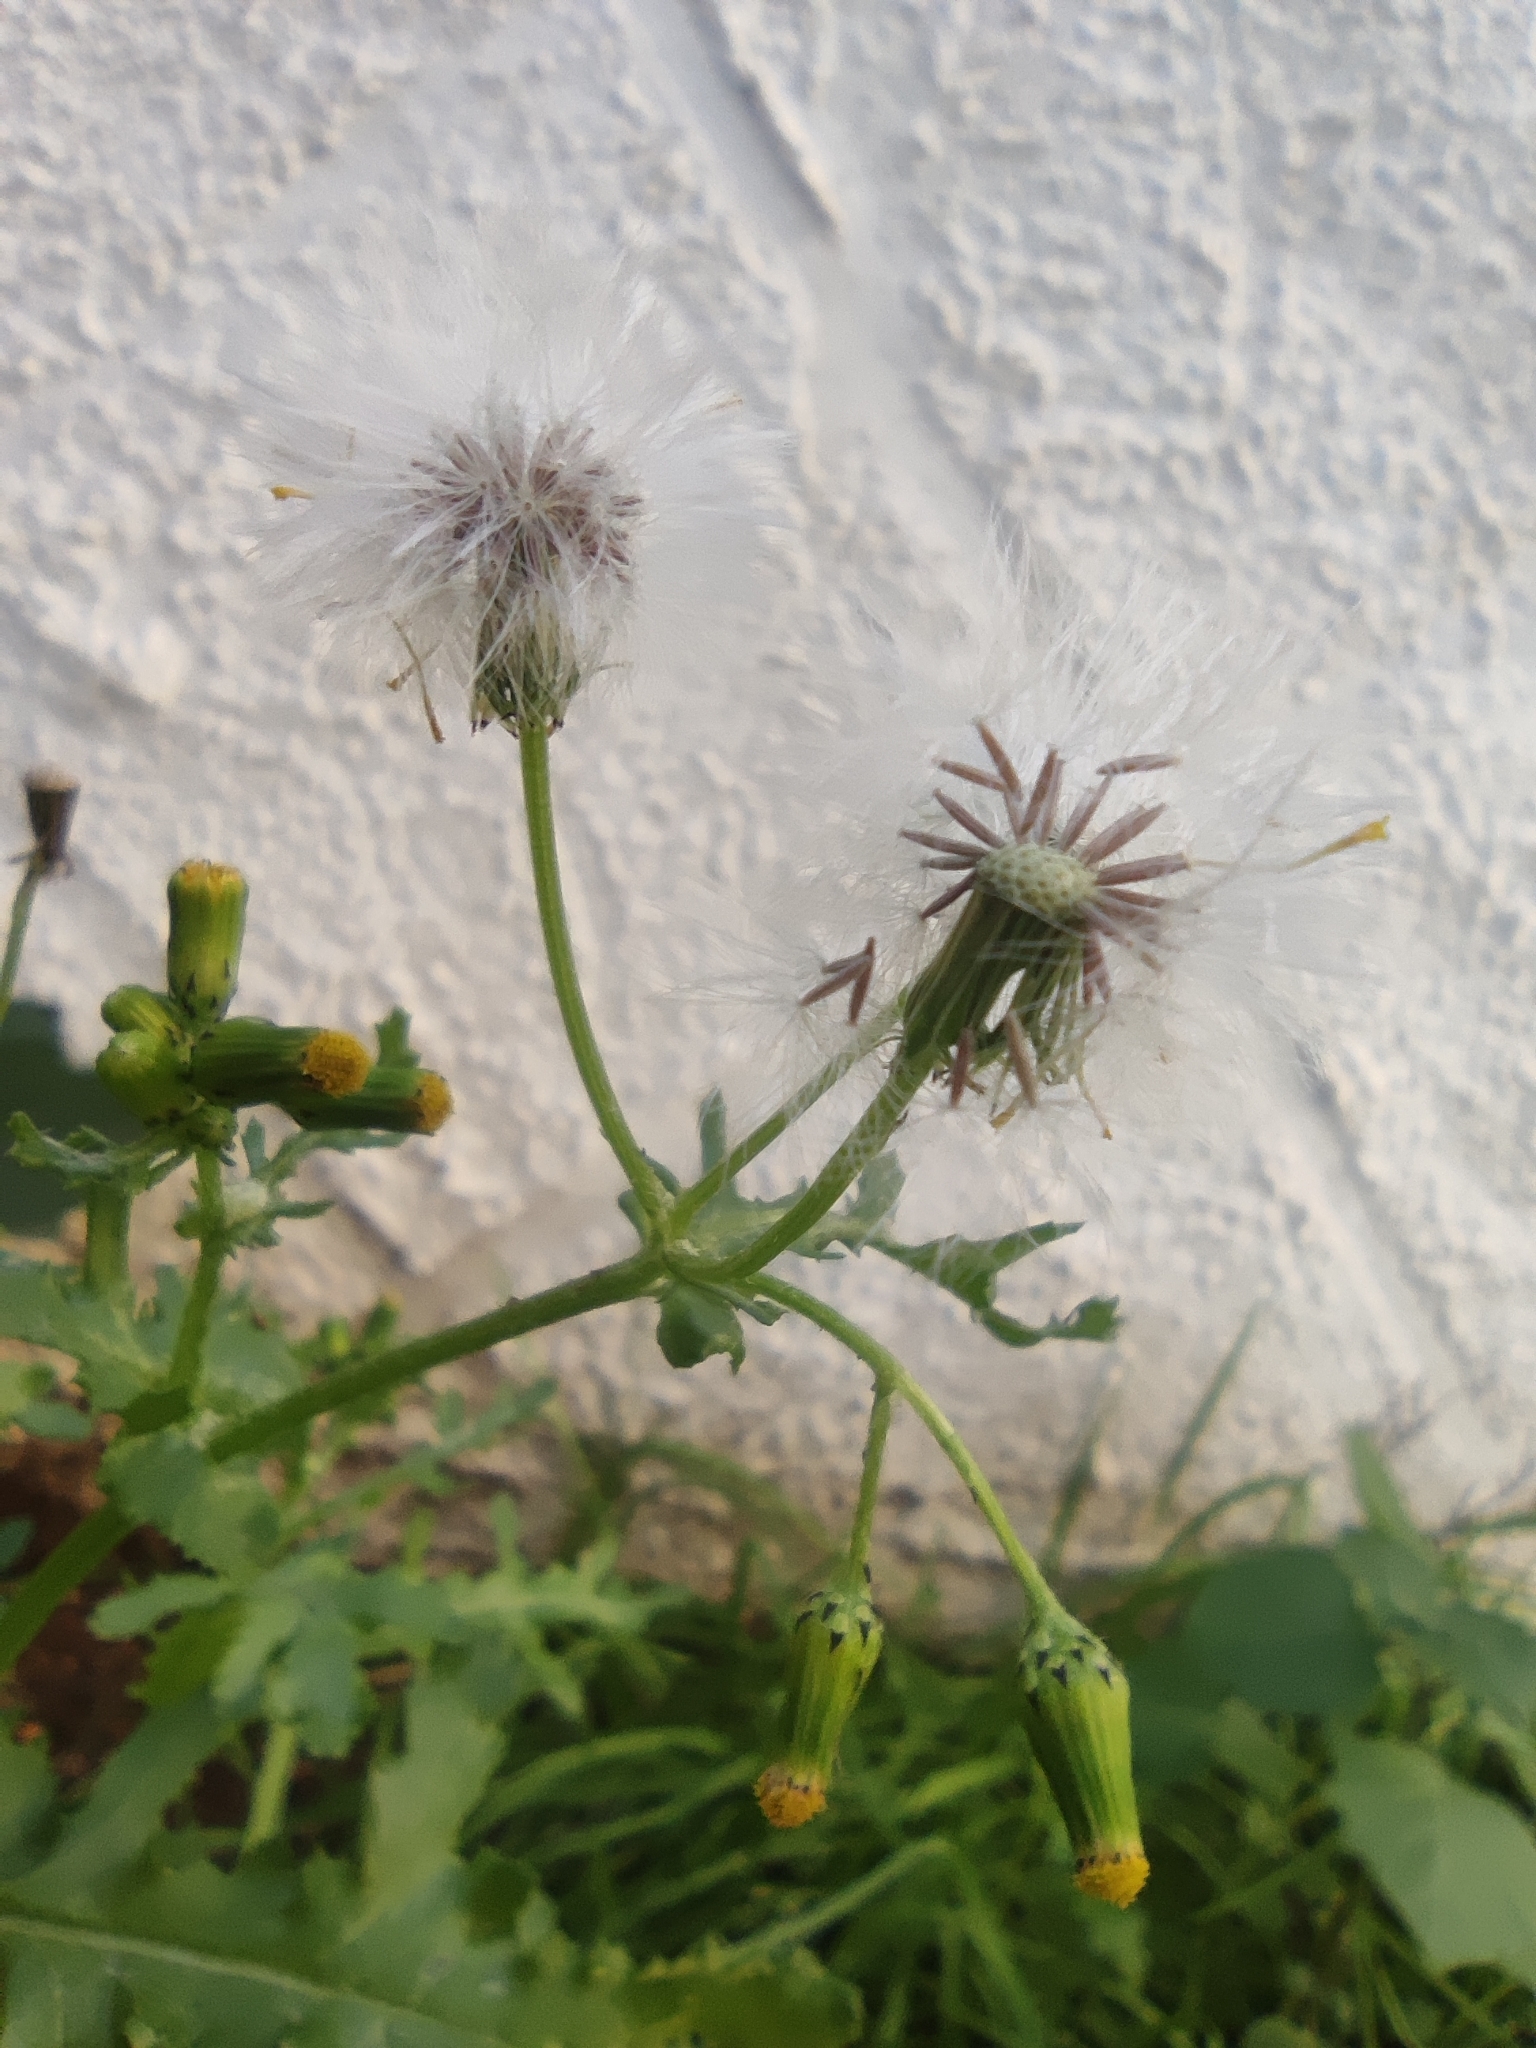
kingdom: Plantae
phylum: Tracheophyta
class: Magnoliopsida
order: Asterales
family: Asteraceae
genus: Senecio
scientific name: Senecio vulgaris
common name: Old-man-in-the-spring
